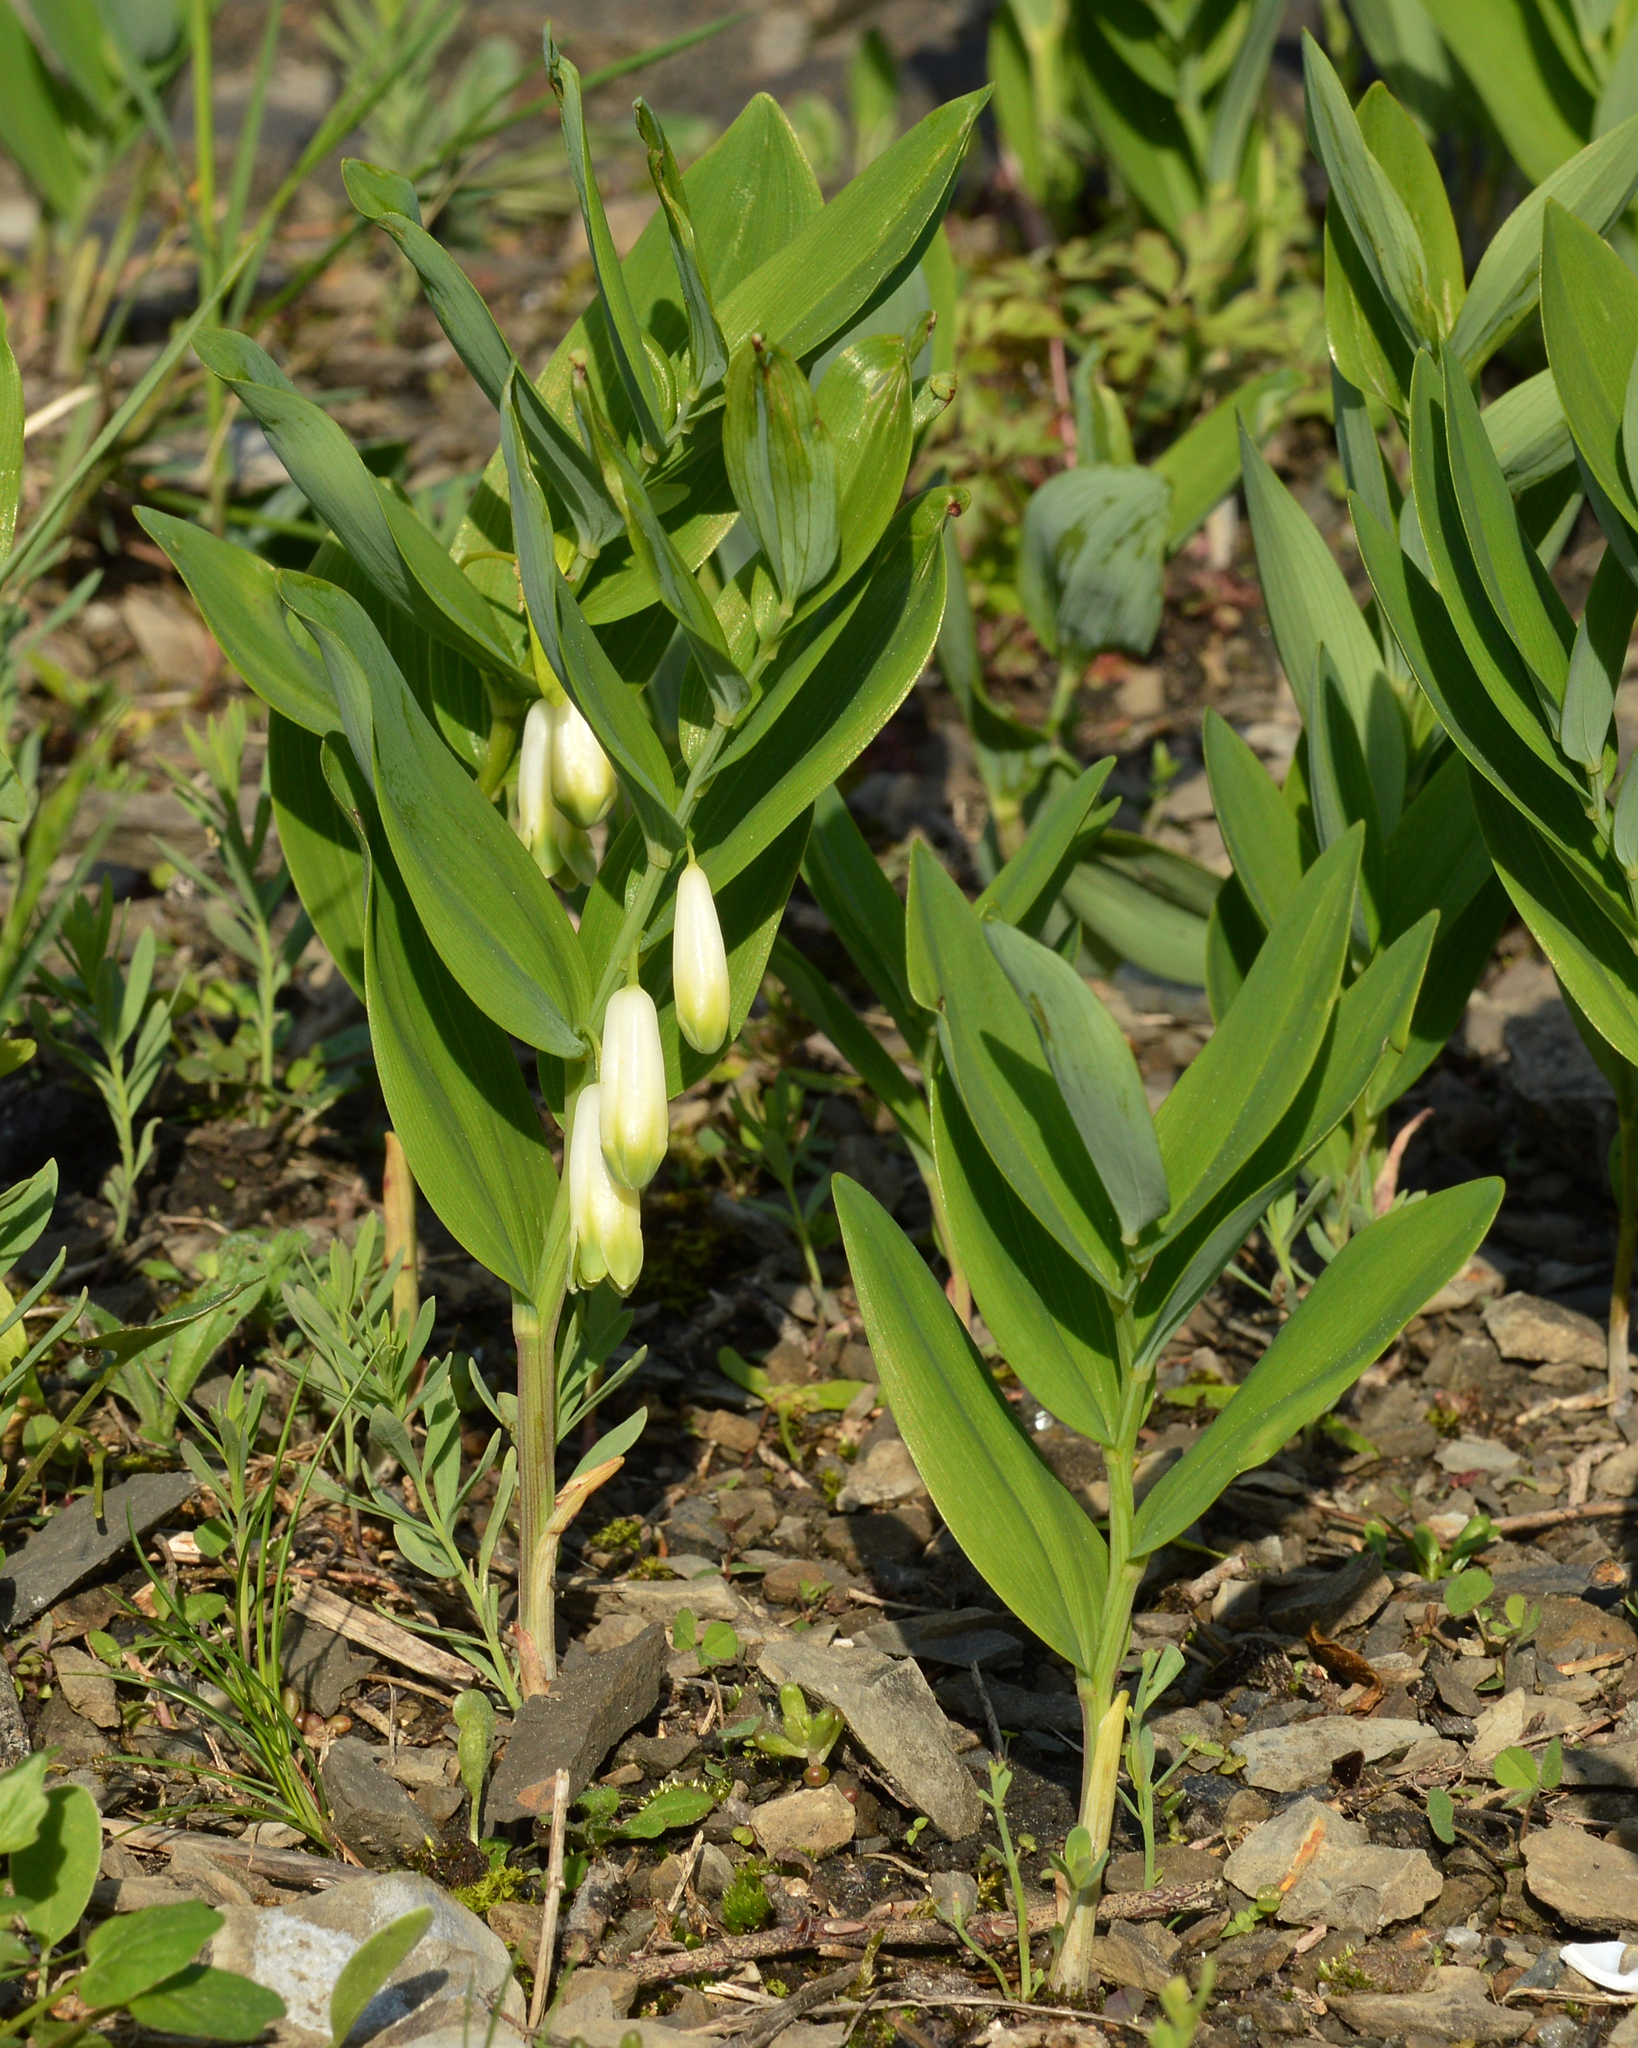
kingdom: Plantae
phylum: Tracheophyta
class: Liliopsida
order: Asparagales
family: Asparagaceae
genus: Polygonatum
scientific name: Polygonatum odoratum
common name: Angular solomon's-seal
